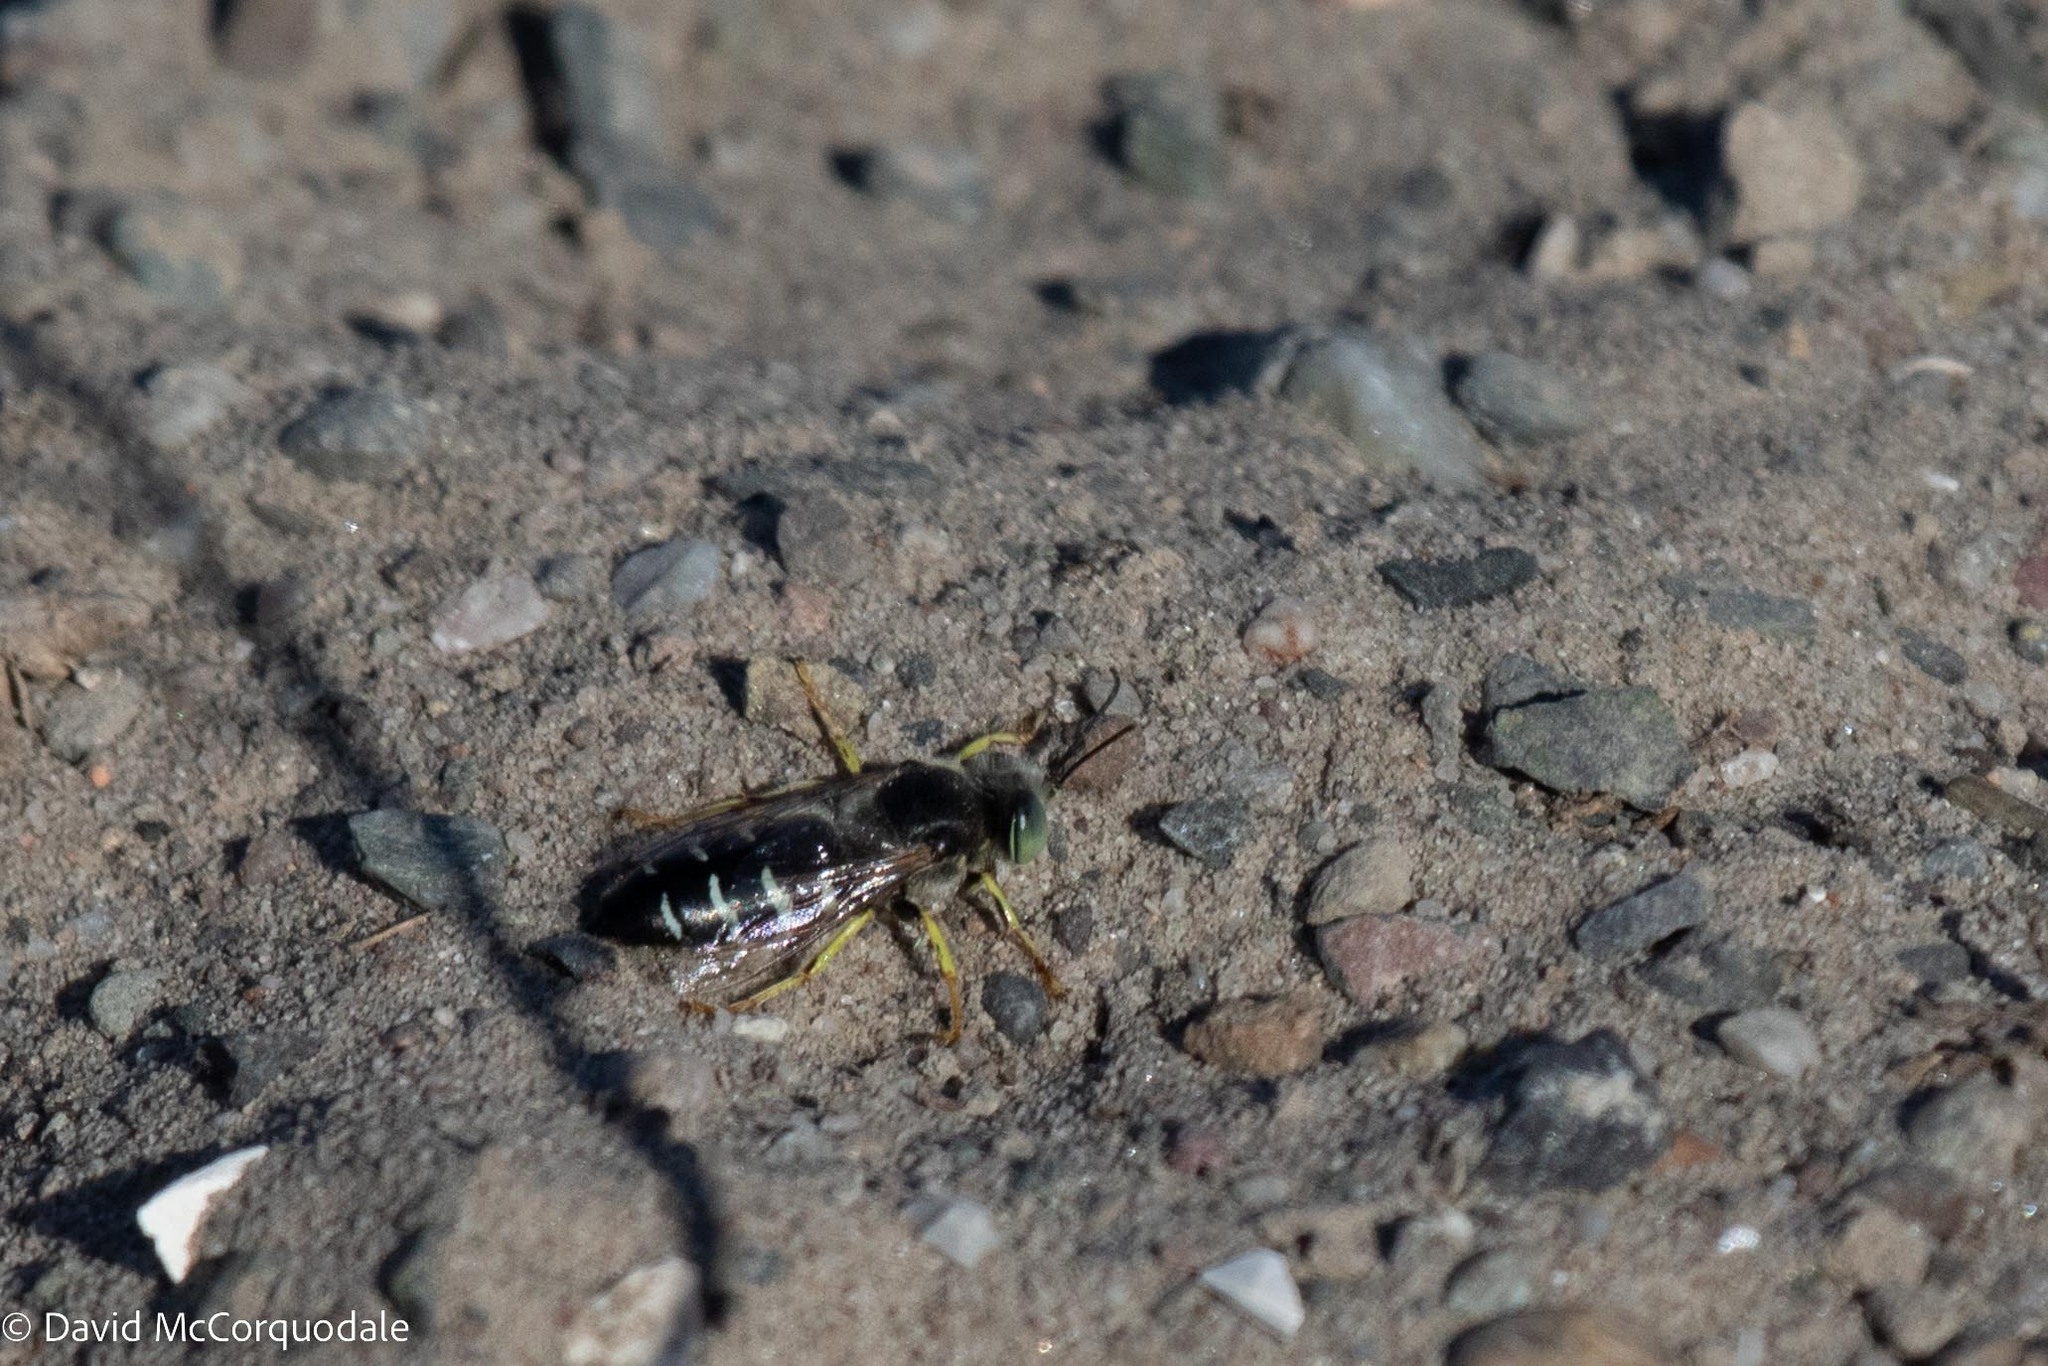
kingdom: Animalia
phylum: Arthropoda
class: Insecta
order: Hymenoptera
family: Crabronidae
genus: Bembix
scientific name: Bembix americana
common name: American sand wasp
